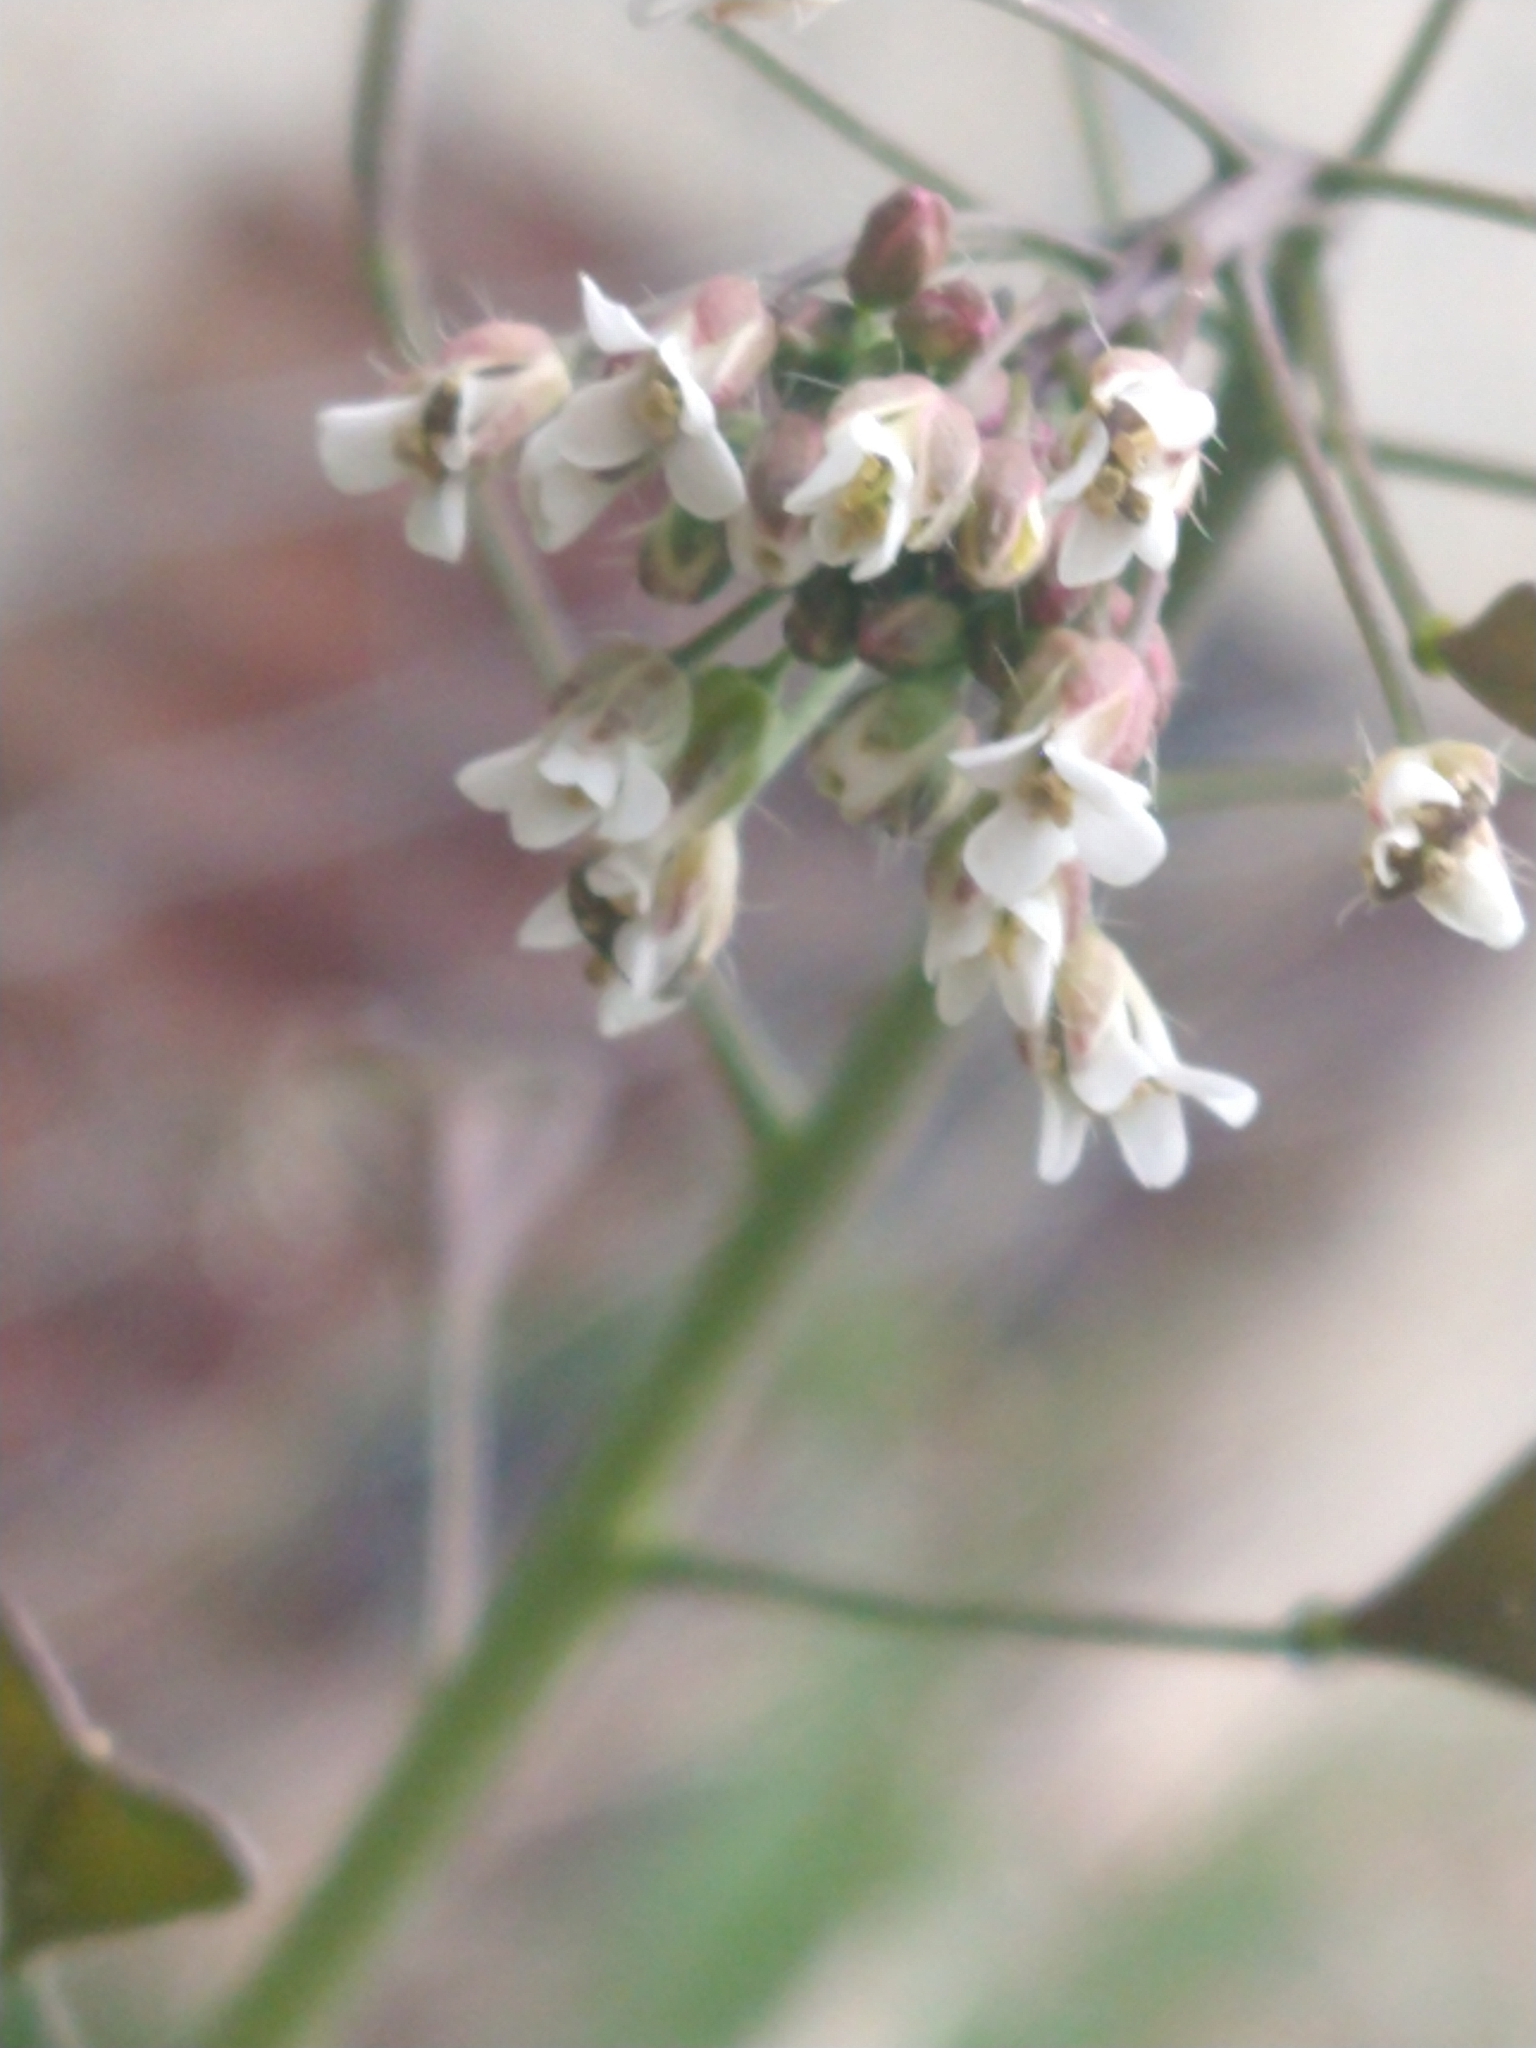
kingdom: Plantae
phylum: Tracheophyta
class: Magnoliopsida
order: Brassicales
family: Brassicaceae
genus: Capsella
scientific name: Capsella bursa-pastoris
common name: Shepherd's purse
